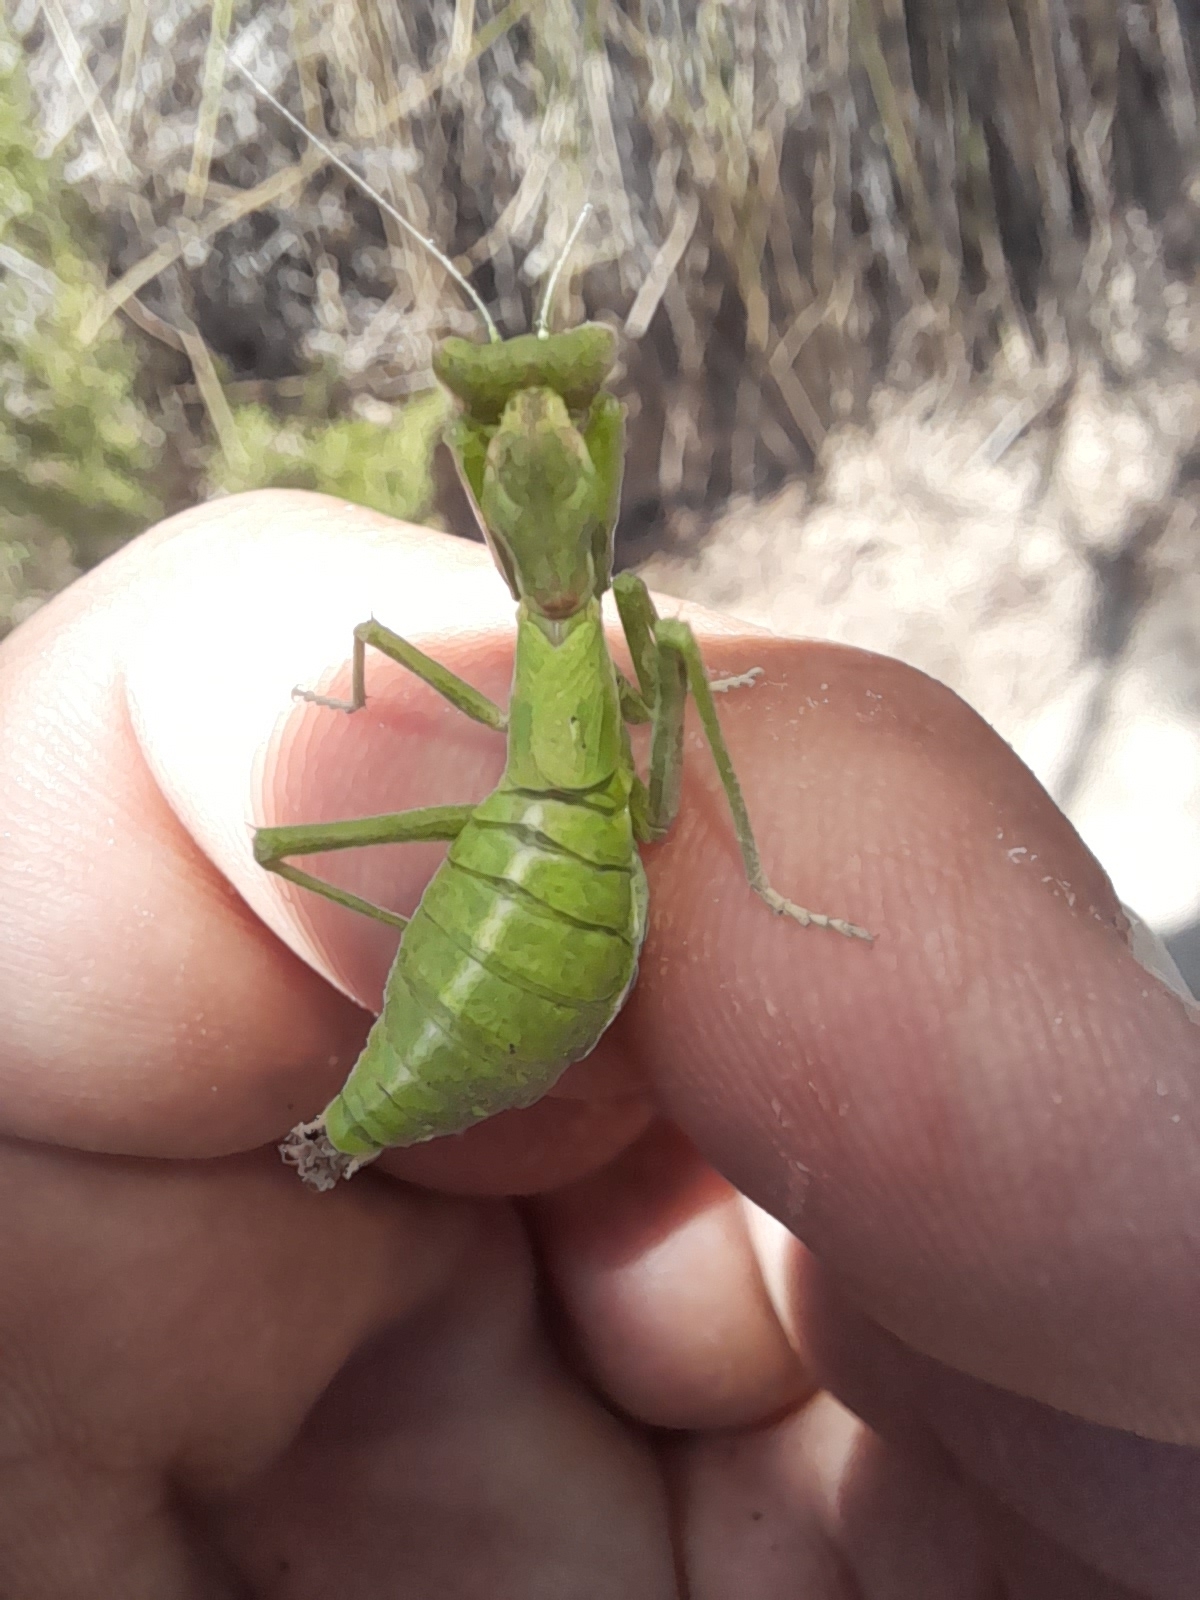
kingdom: Animalia
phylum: Arthropoda
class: Insecta
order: Mantodea
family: Amelidae
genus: Ameles
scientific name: Ameles spallanzania
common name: European dwarf mantis
